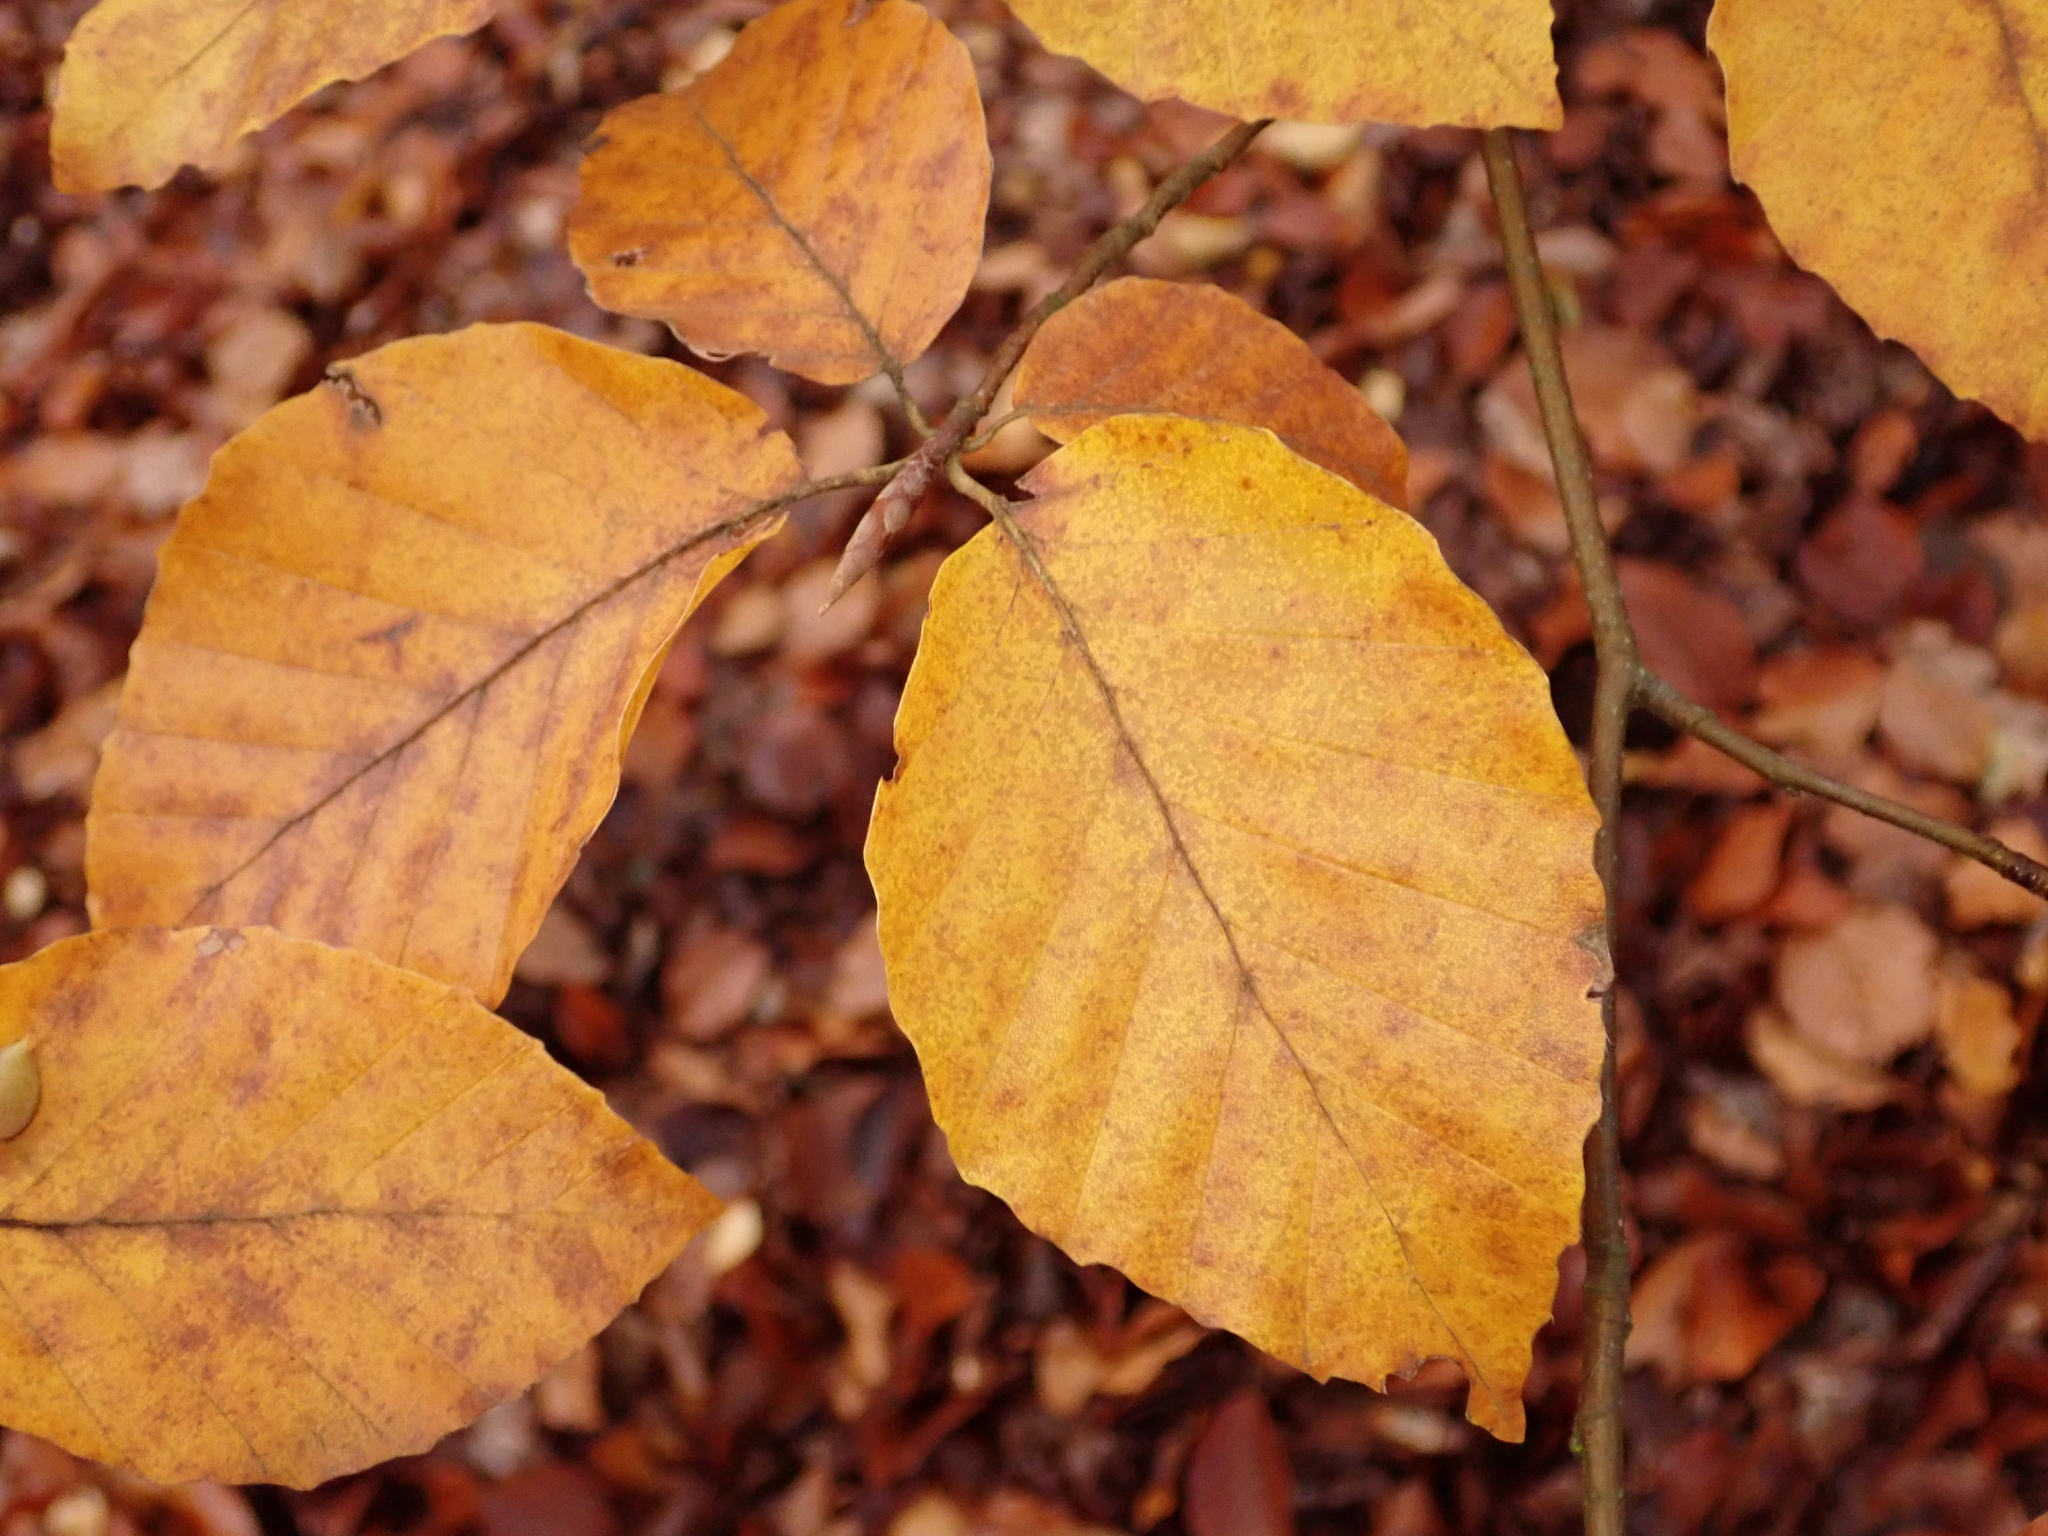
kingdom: Plantae
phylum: Tracheophyta
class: Magnoliopsida
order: Fagales
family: Fagaceae
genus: Fagus
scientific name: Fagus sylvatica
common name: Beech
